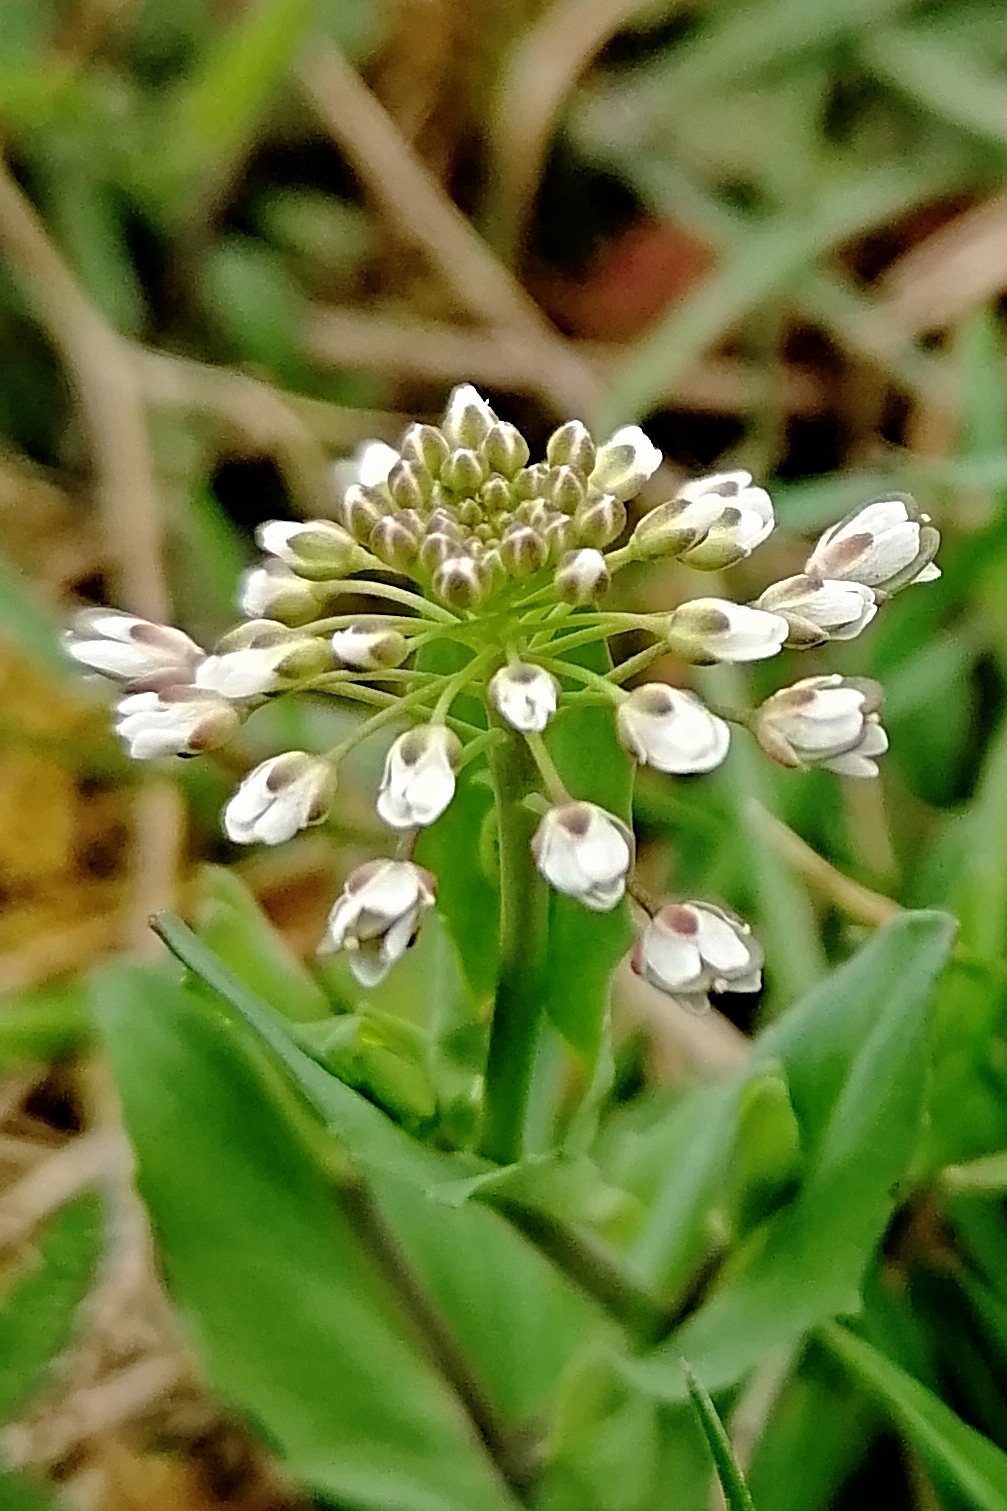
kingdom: Plantae
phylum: Tracheophyta
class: Magnoliopsida
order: Brassicales
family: Brassicaceae
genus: Noccaea
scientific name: Noccaea perfoliata
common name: Perfoliate pennycress
